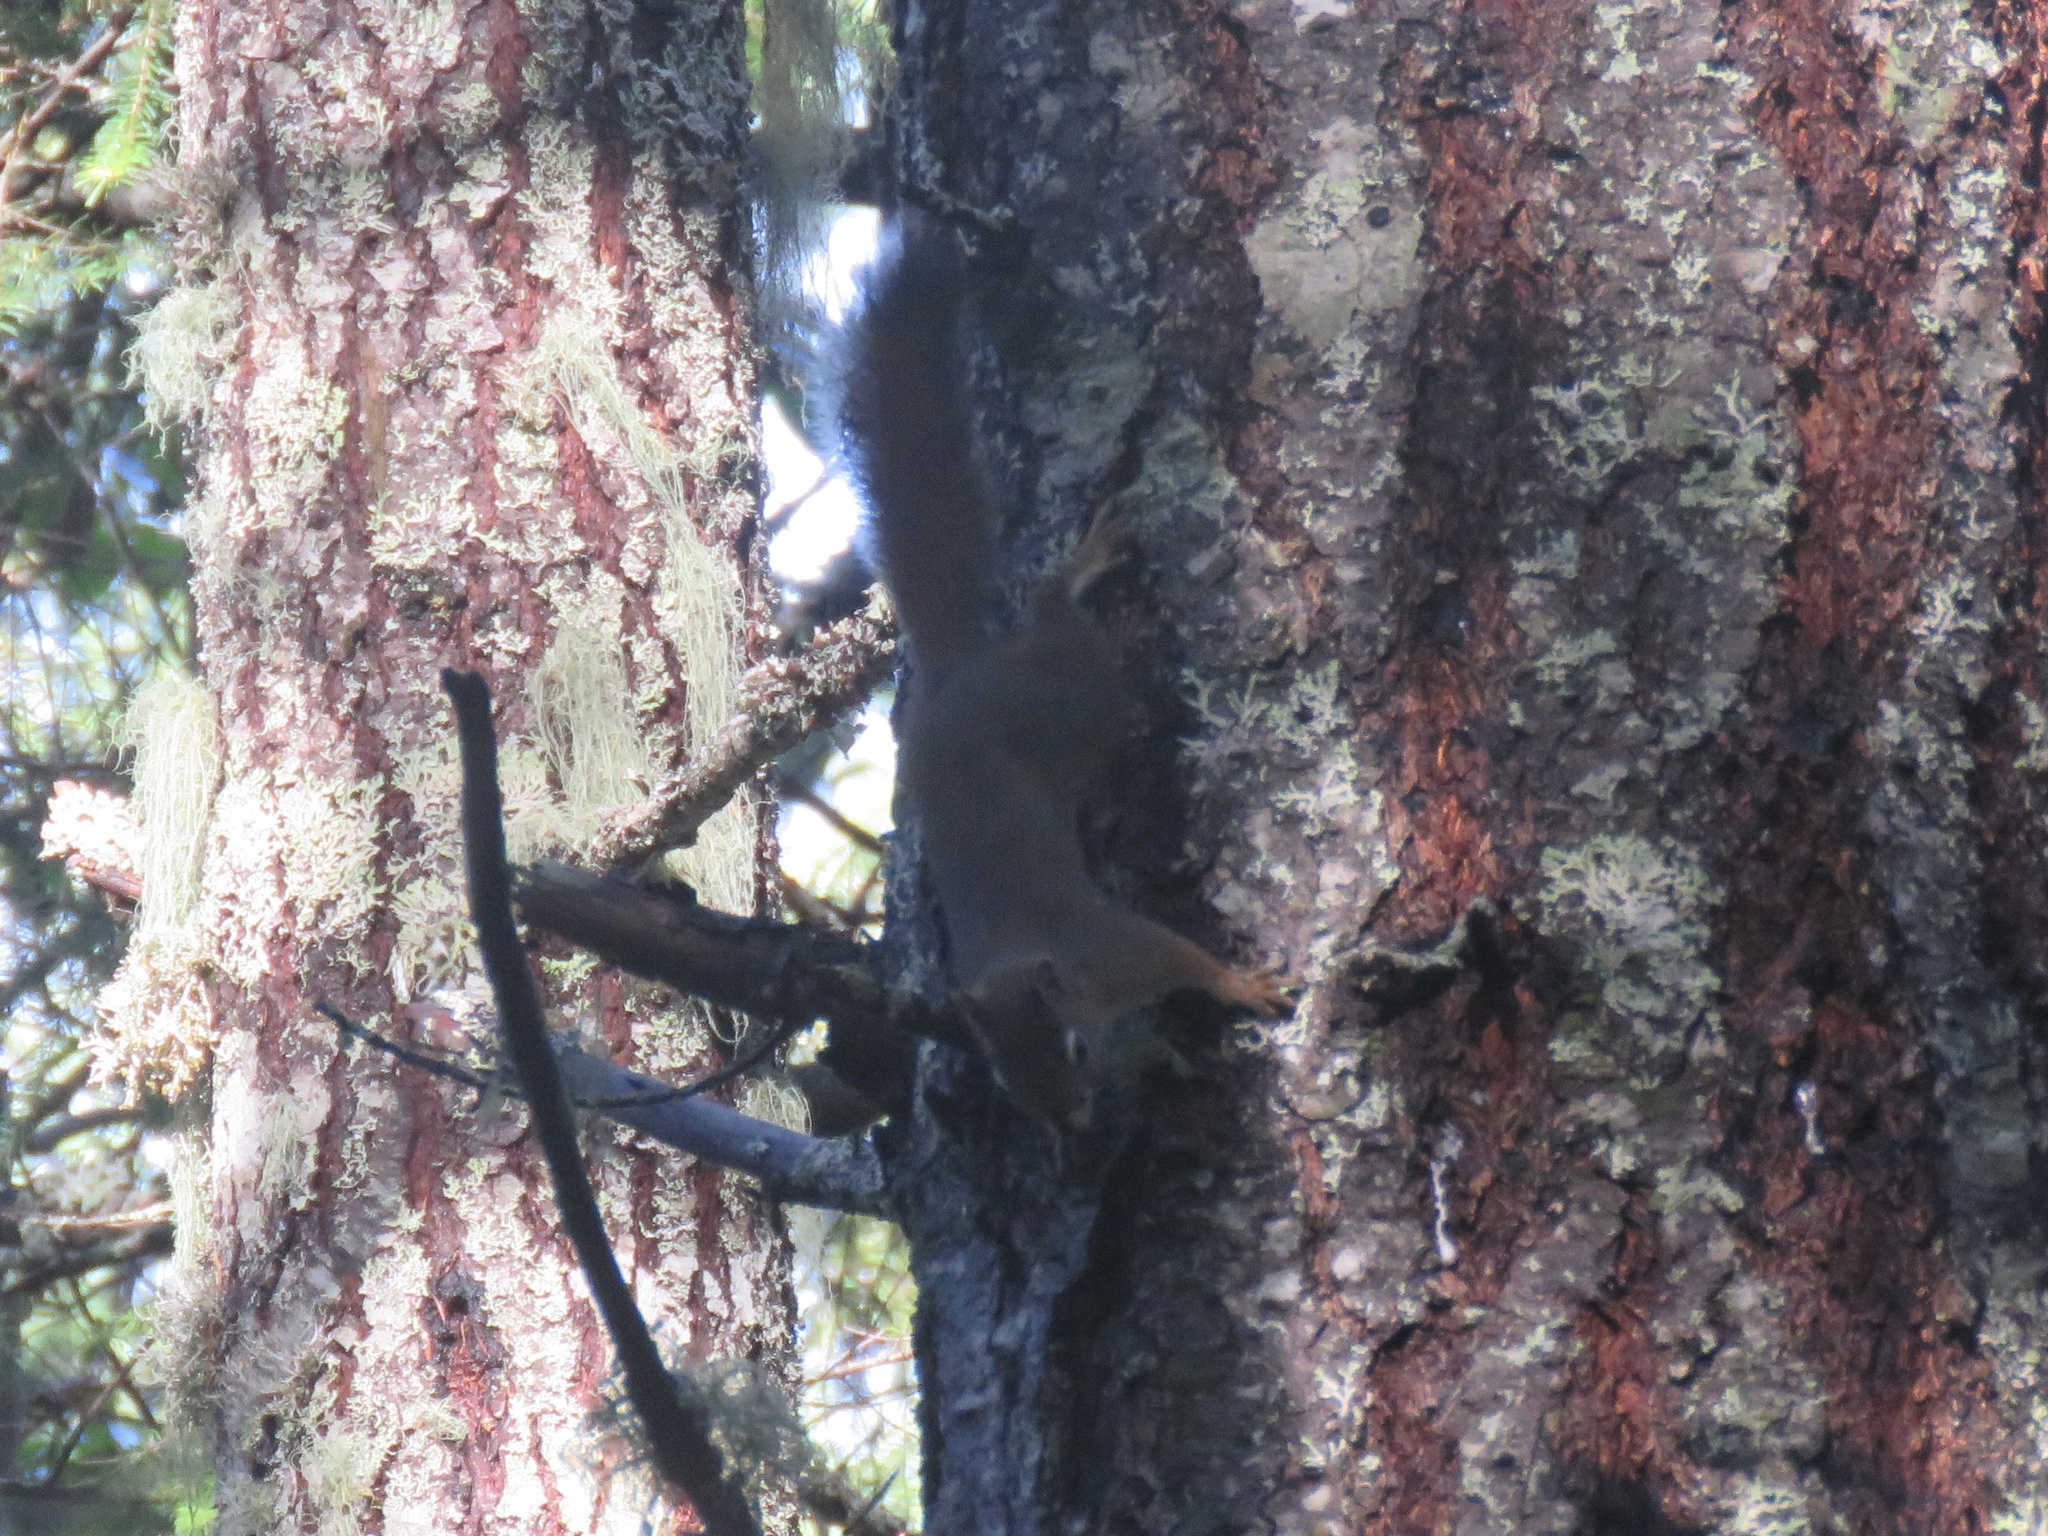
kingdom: Animalia
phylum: Chordata
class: Mammalia
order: Rodentia
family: Sciuridae
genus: Tamiasciurus
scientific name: Tamiasciurus hudsonicus
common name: Red squirrel
